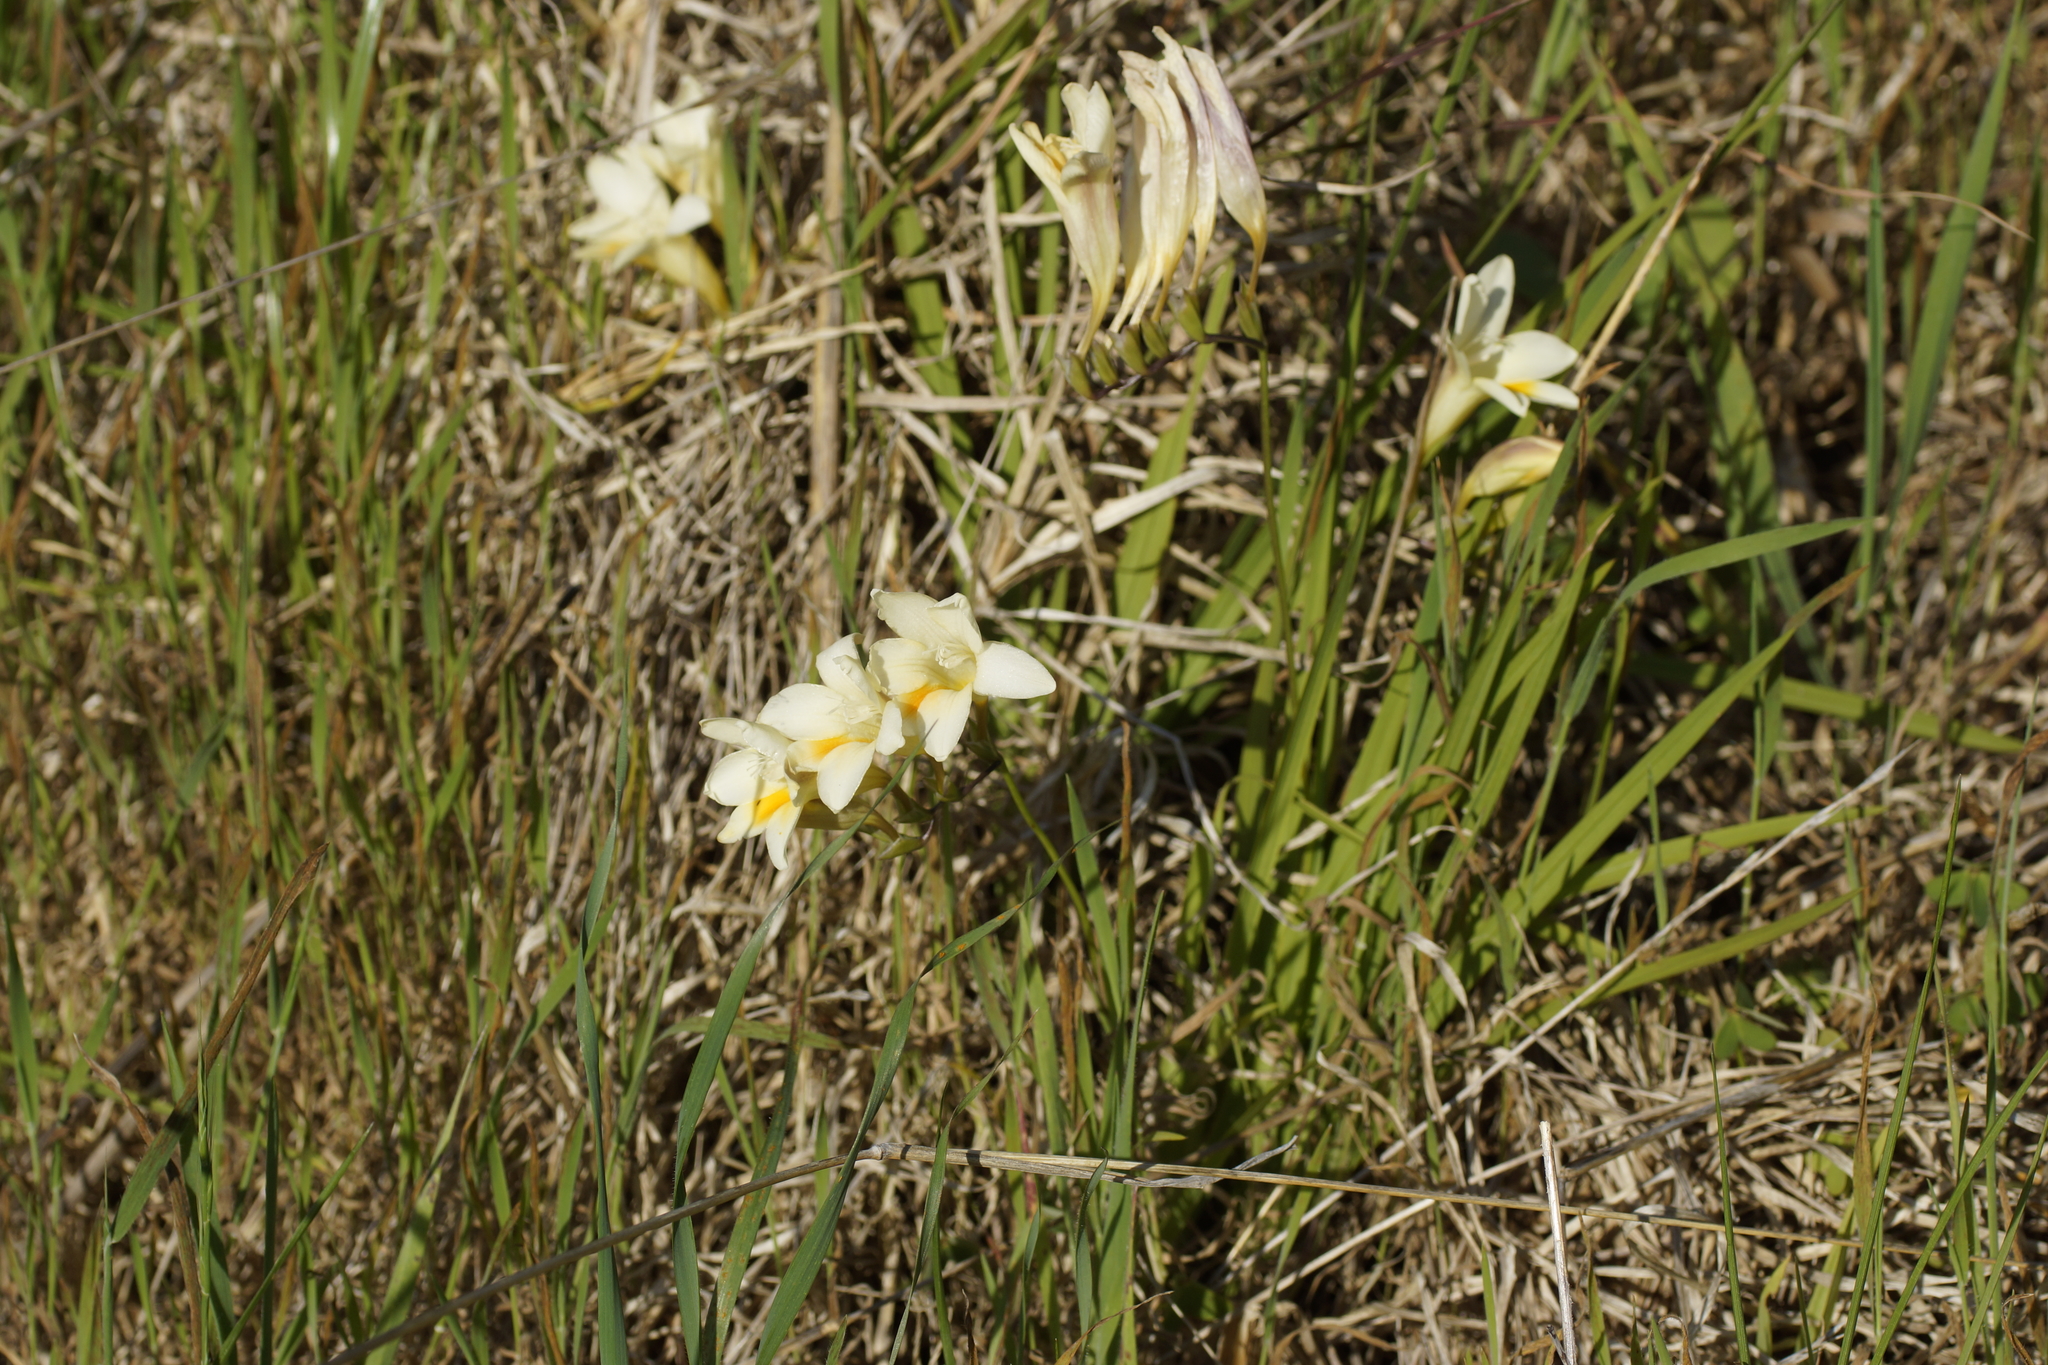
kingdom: Plantae
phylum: Tracheophyta
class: Liliopsida
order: Asparagales
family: Iridaceae
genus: Freesia
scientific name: Freesia leichtlinii
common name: Freesia
